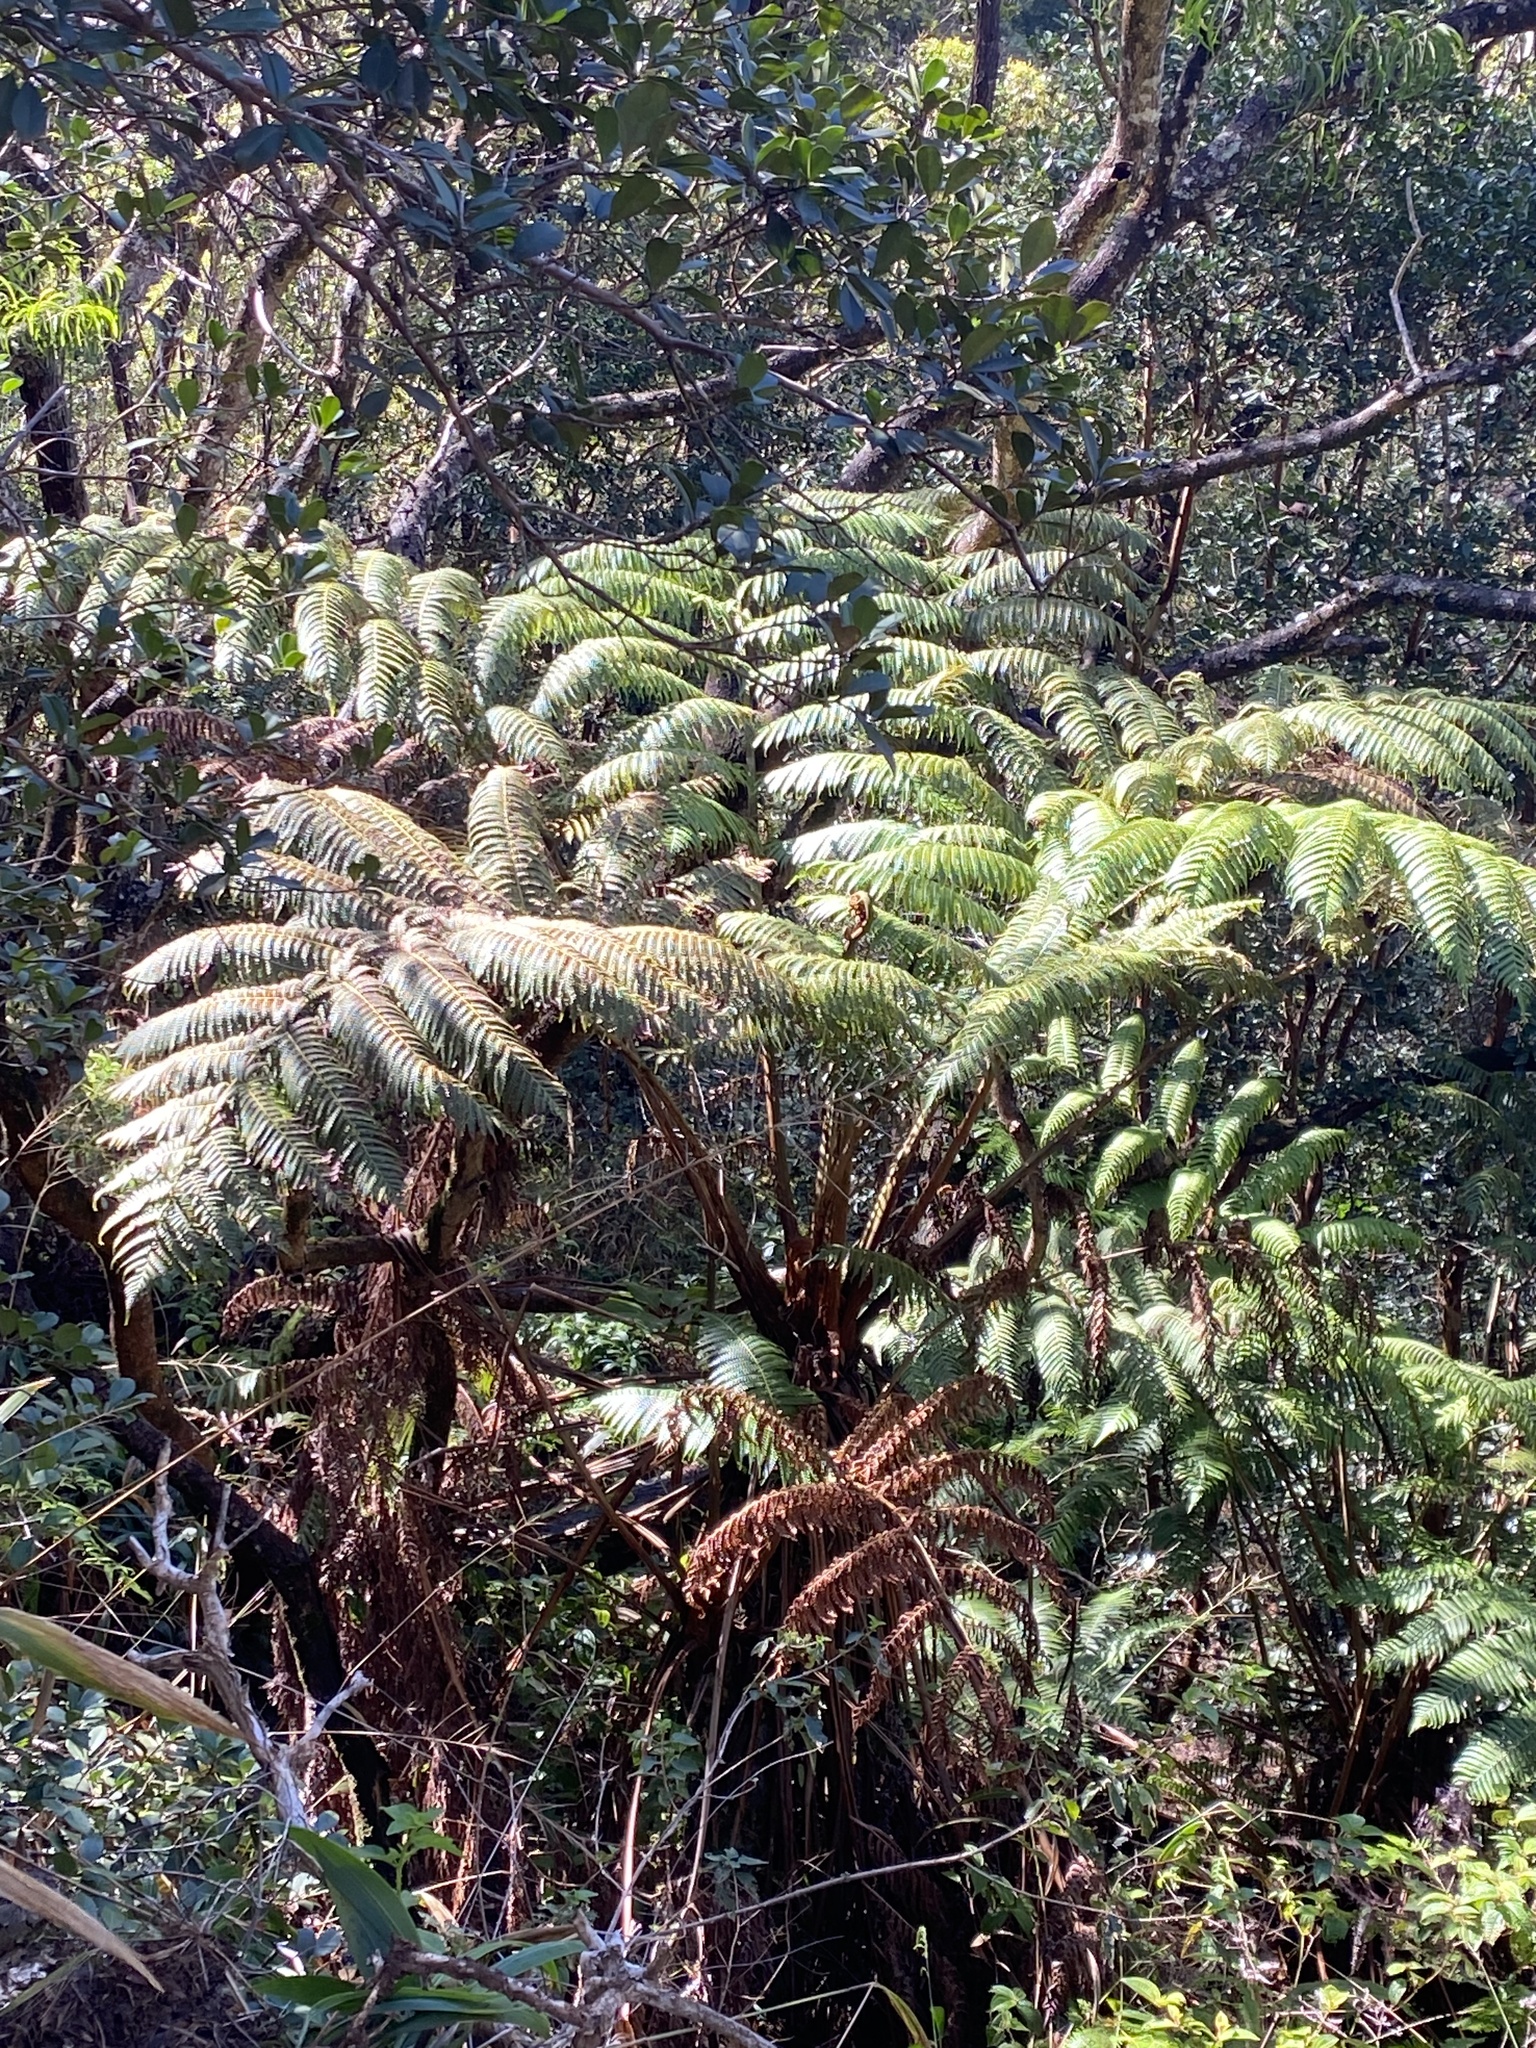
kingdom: Plantae
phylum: Tracheophyta
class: Polypodiopsida
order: Cyatheales
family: Cibotiaceae
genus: Cibotium
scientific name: Cibotium chamissoi
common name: Hawaiian tree fern
